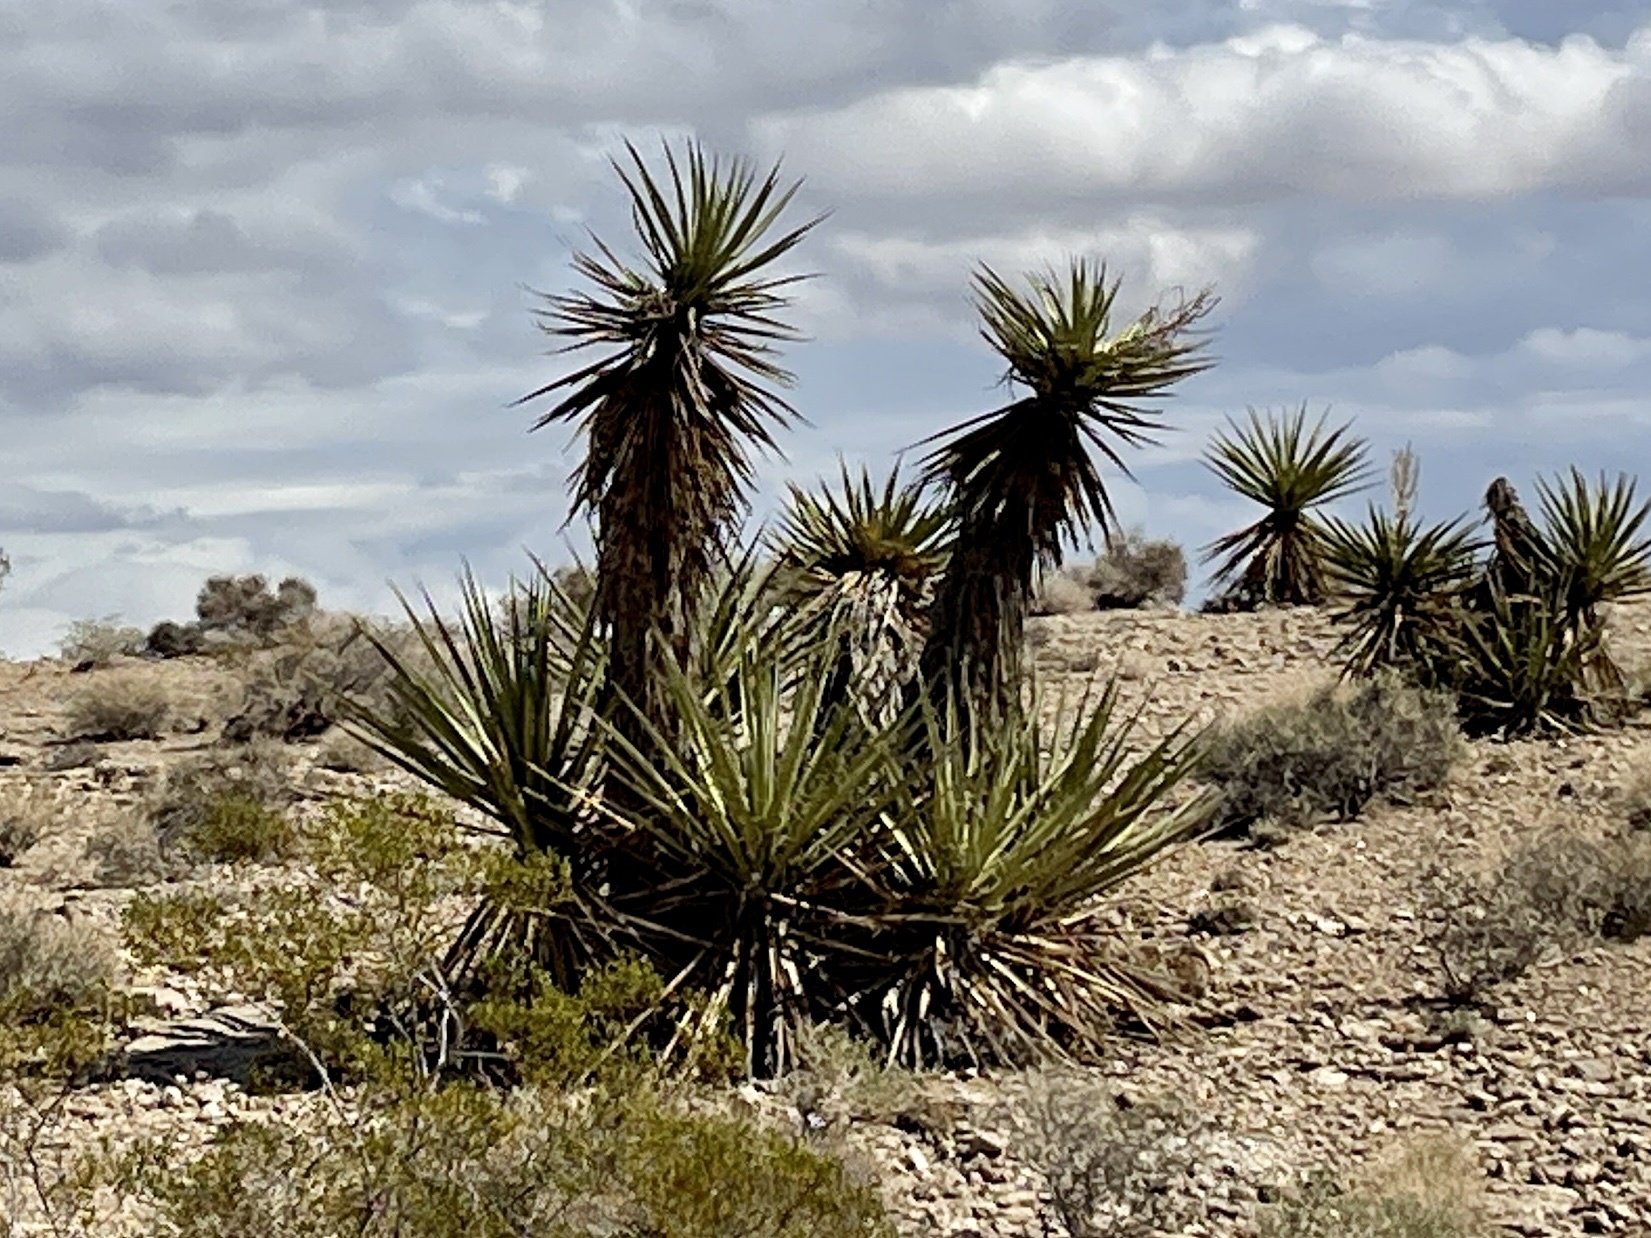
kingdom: Plantae
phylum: Tracheophyta
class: Liliopsida
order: Asparagales
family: Asparagaceae
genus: Yucca
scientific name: Yucca schidigera
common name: Mojave yucca
